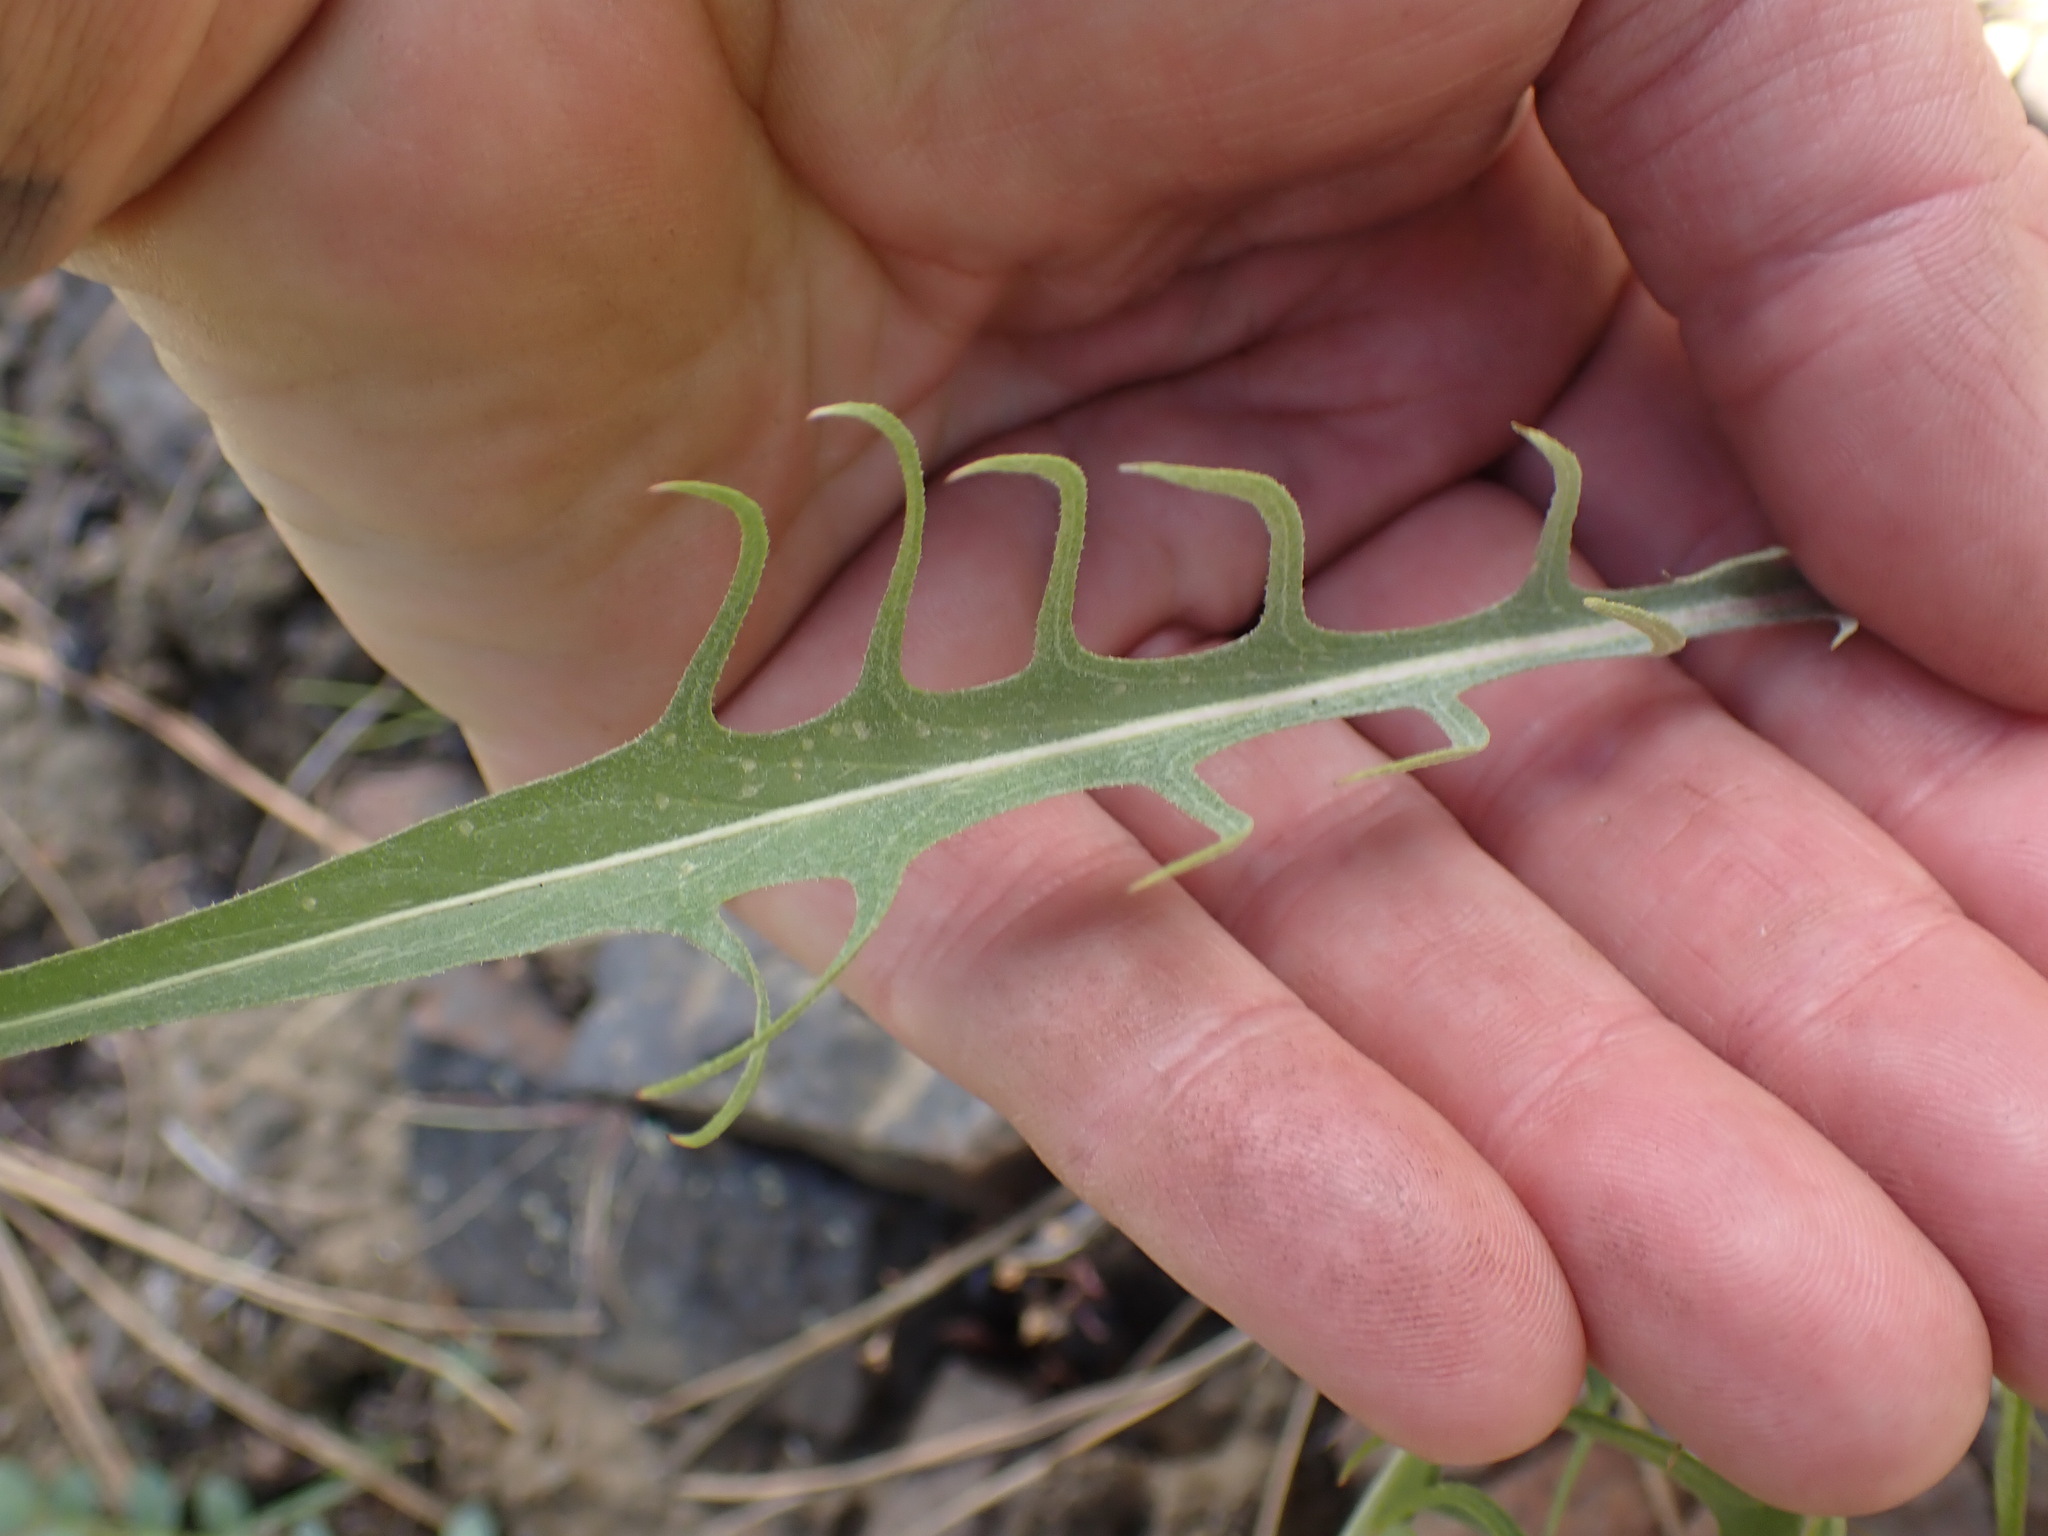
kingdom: Plantae
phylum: Tracheophyta
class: Magnoliopsida
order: Asterales
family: Asteraceae
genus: Crepis
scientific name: Crepis atribarba
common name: Dark hawk's-beard
